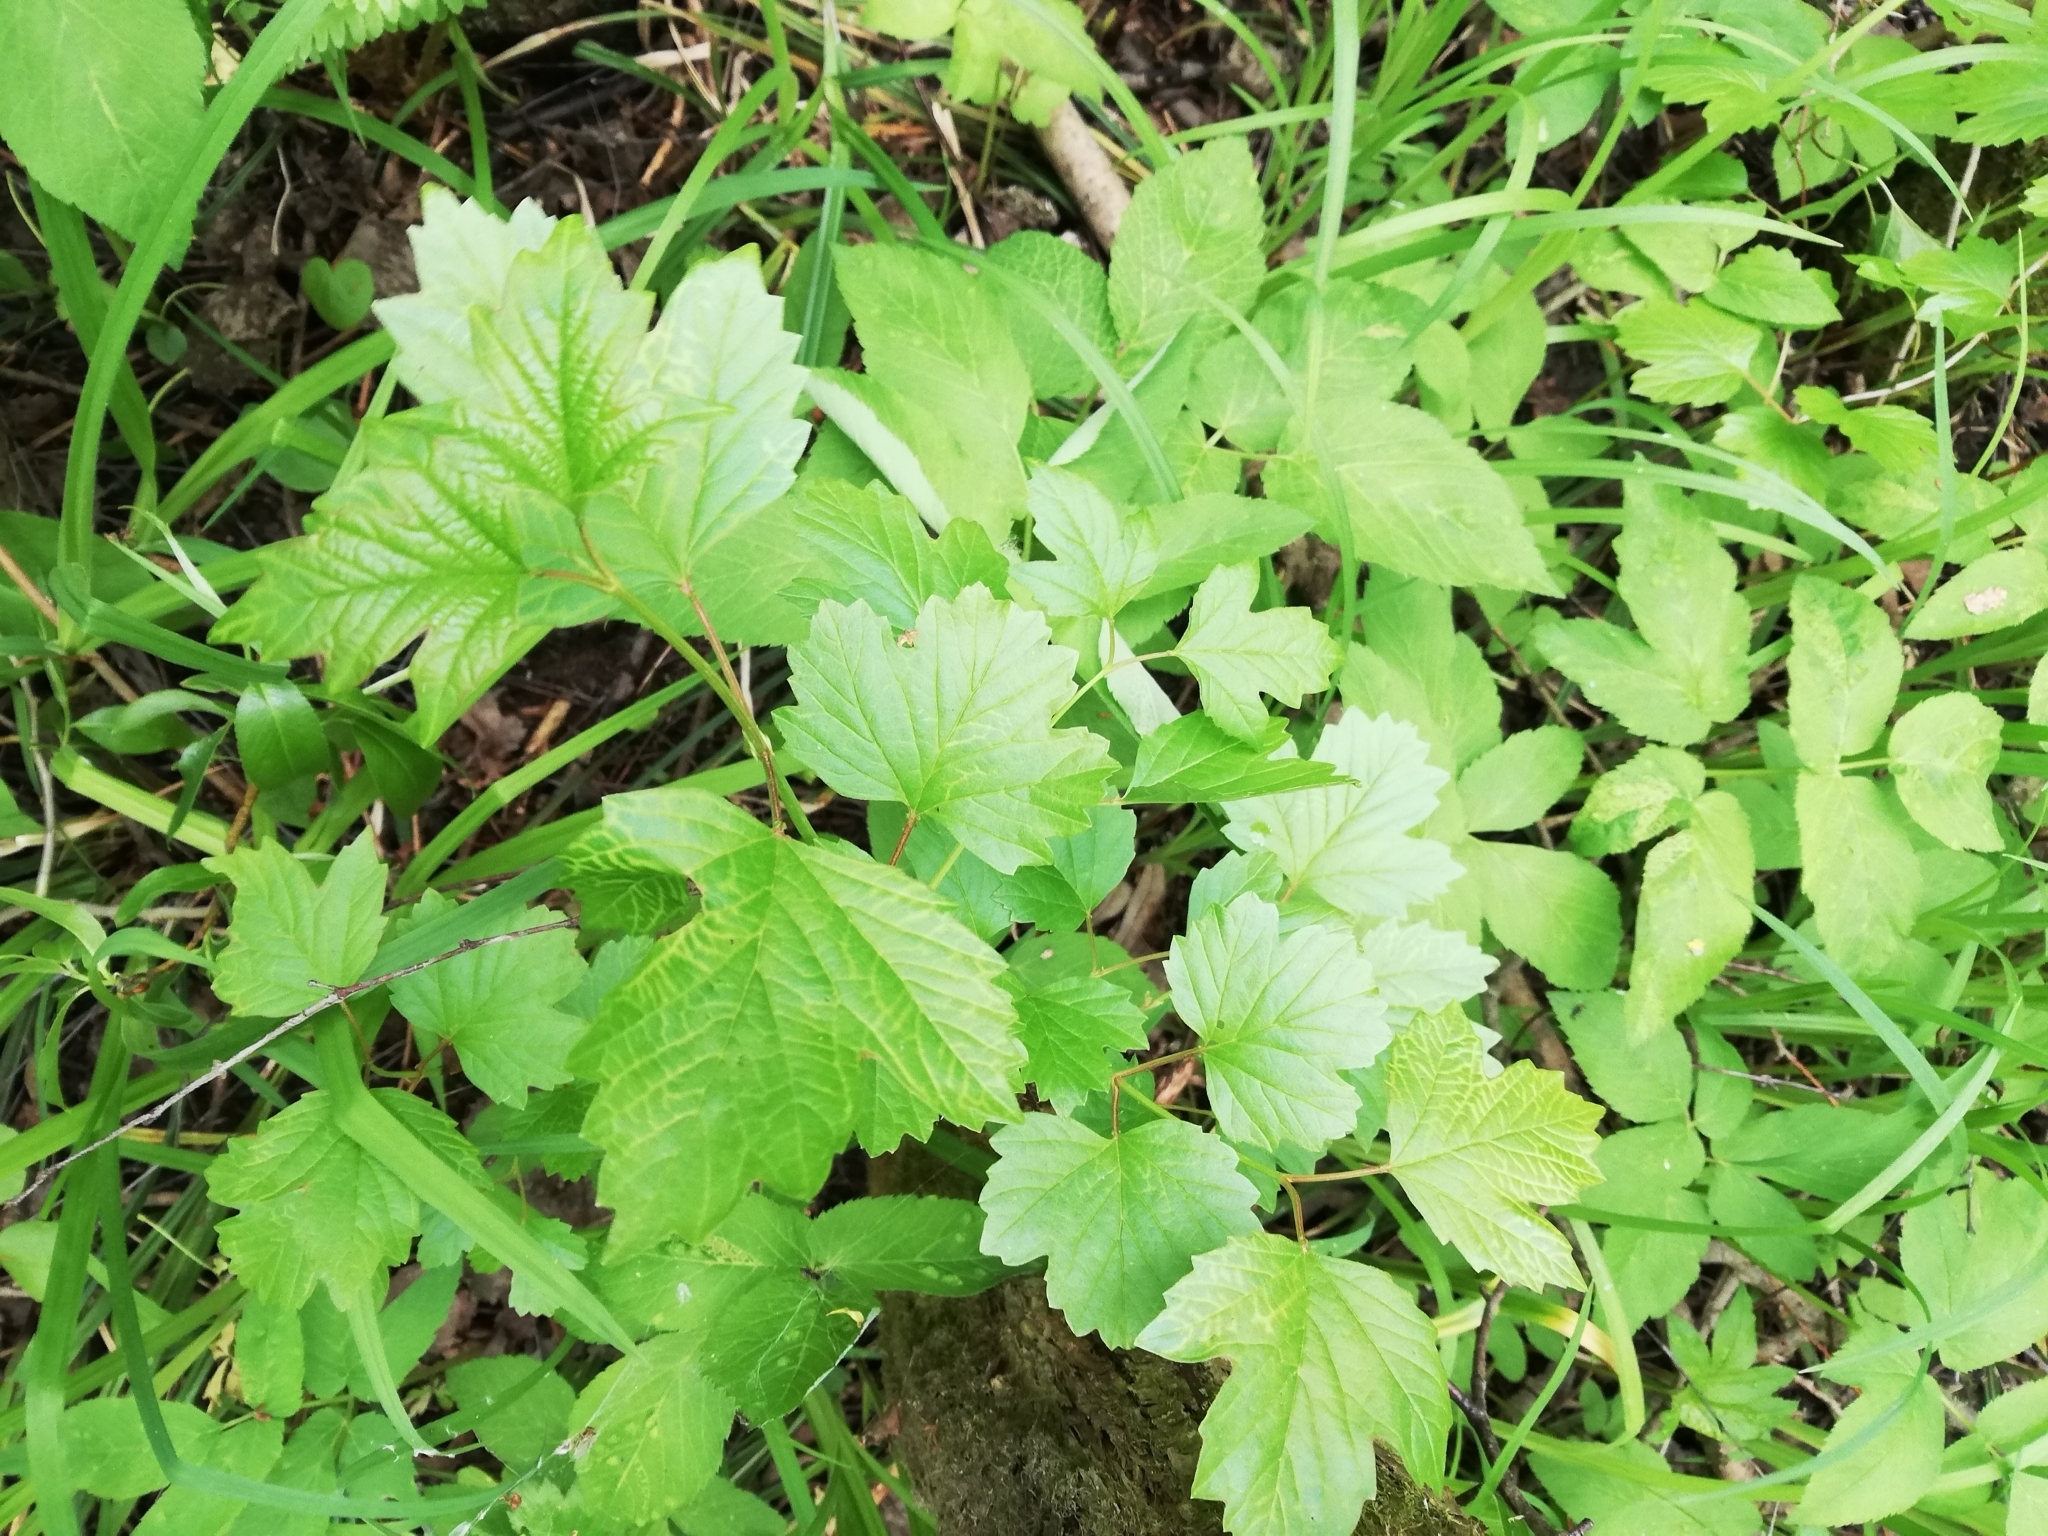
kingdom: Plantae
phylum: Tracheophyta
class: Magnoliopsida
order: Dipsacales
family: Viburnaceae
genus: Viburnum
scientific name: Viburnum opulus
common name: Guelder-rose
